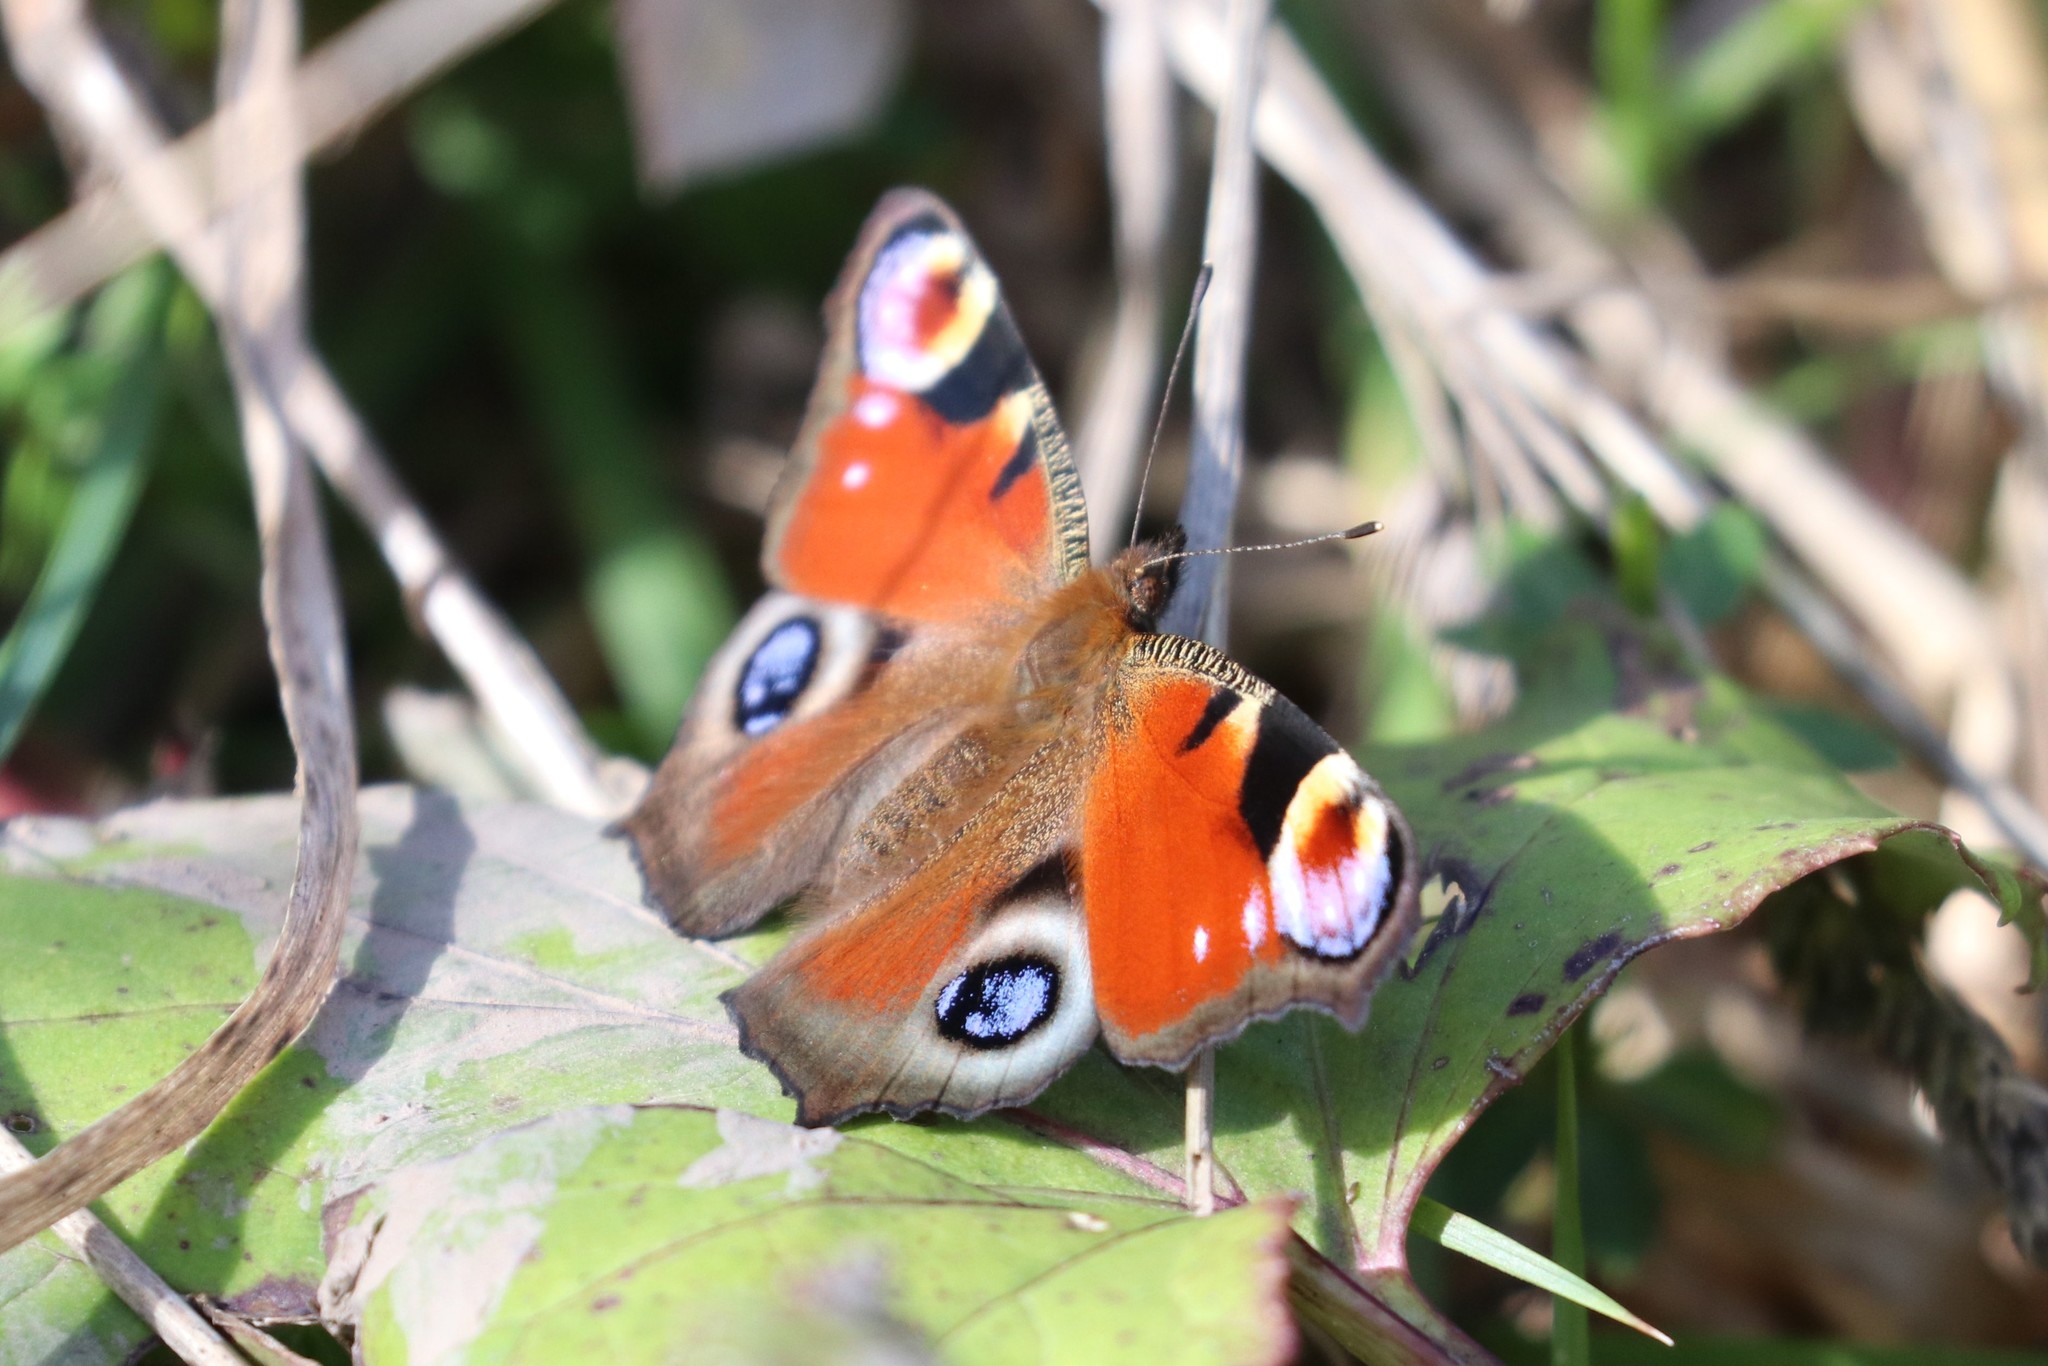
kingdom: Animalia
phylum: Arthropoda
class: Insecta
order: Lepidoptera
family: Nymphalidae
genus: Aglais
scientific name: Aglais io
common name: Peacock
